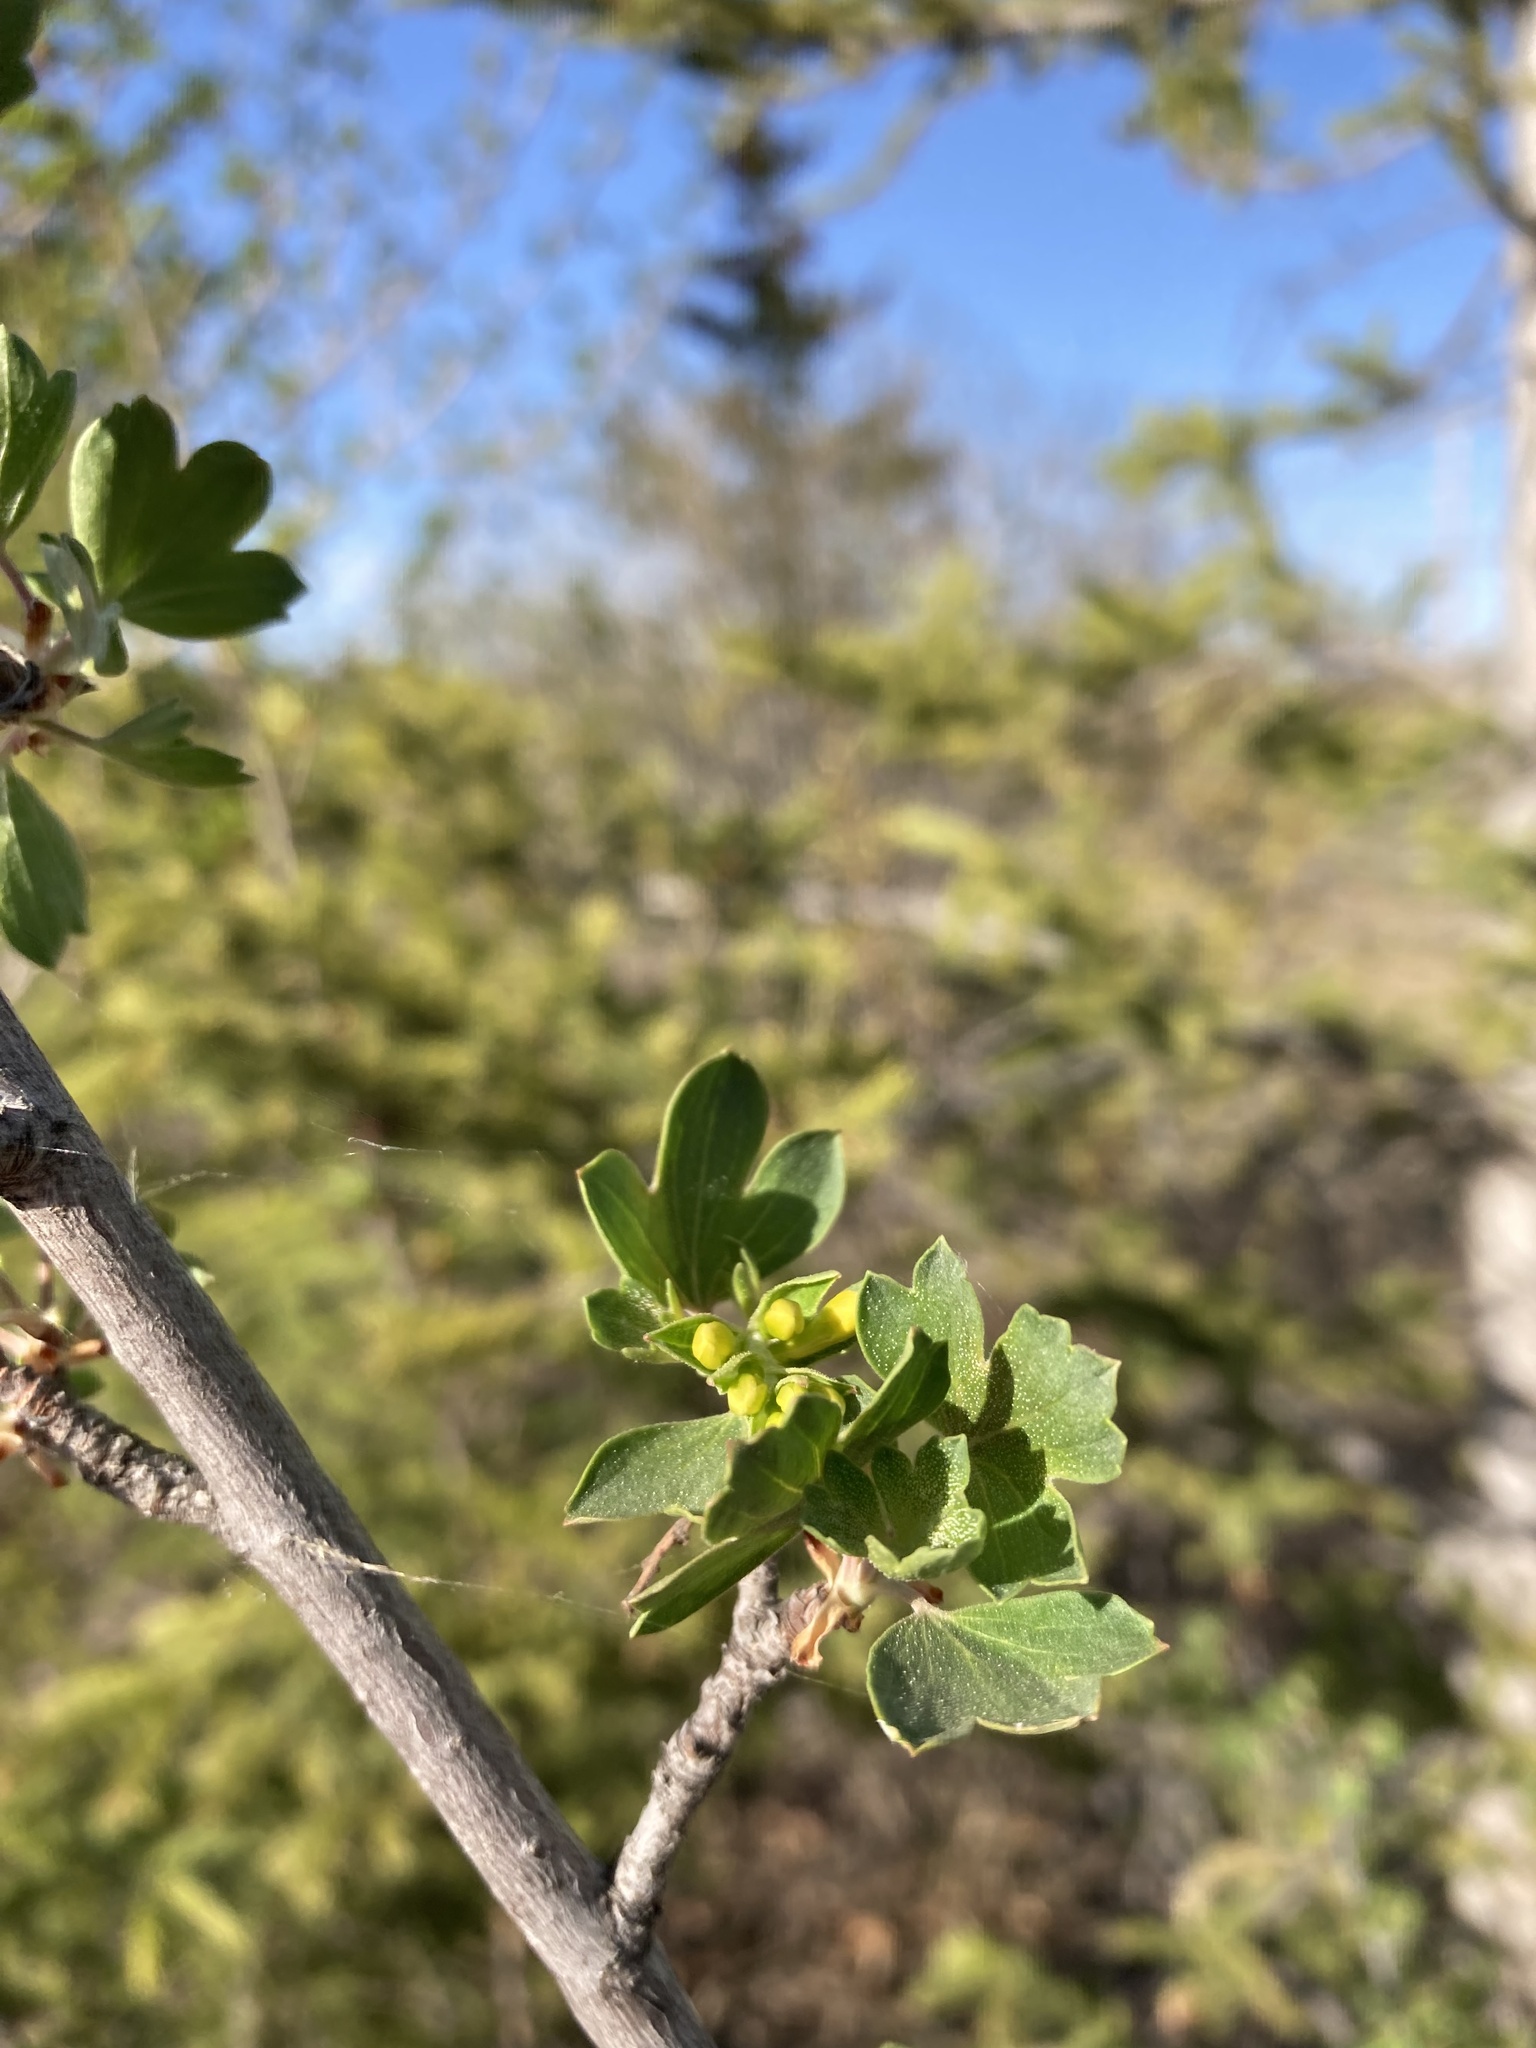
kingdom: Plantae
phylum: Tracheophyta
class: Magnoliopsida
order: Saxifragales
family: Grossulariaceae
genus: Ribes
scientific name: Ribes aureum
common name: Golden currant
